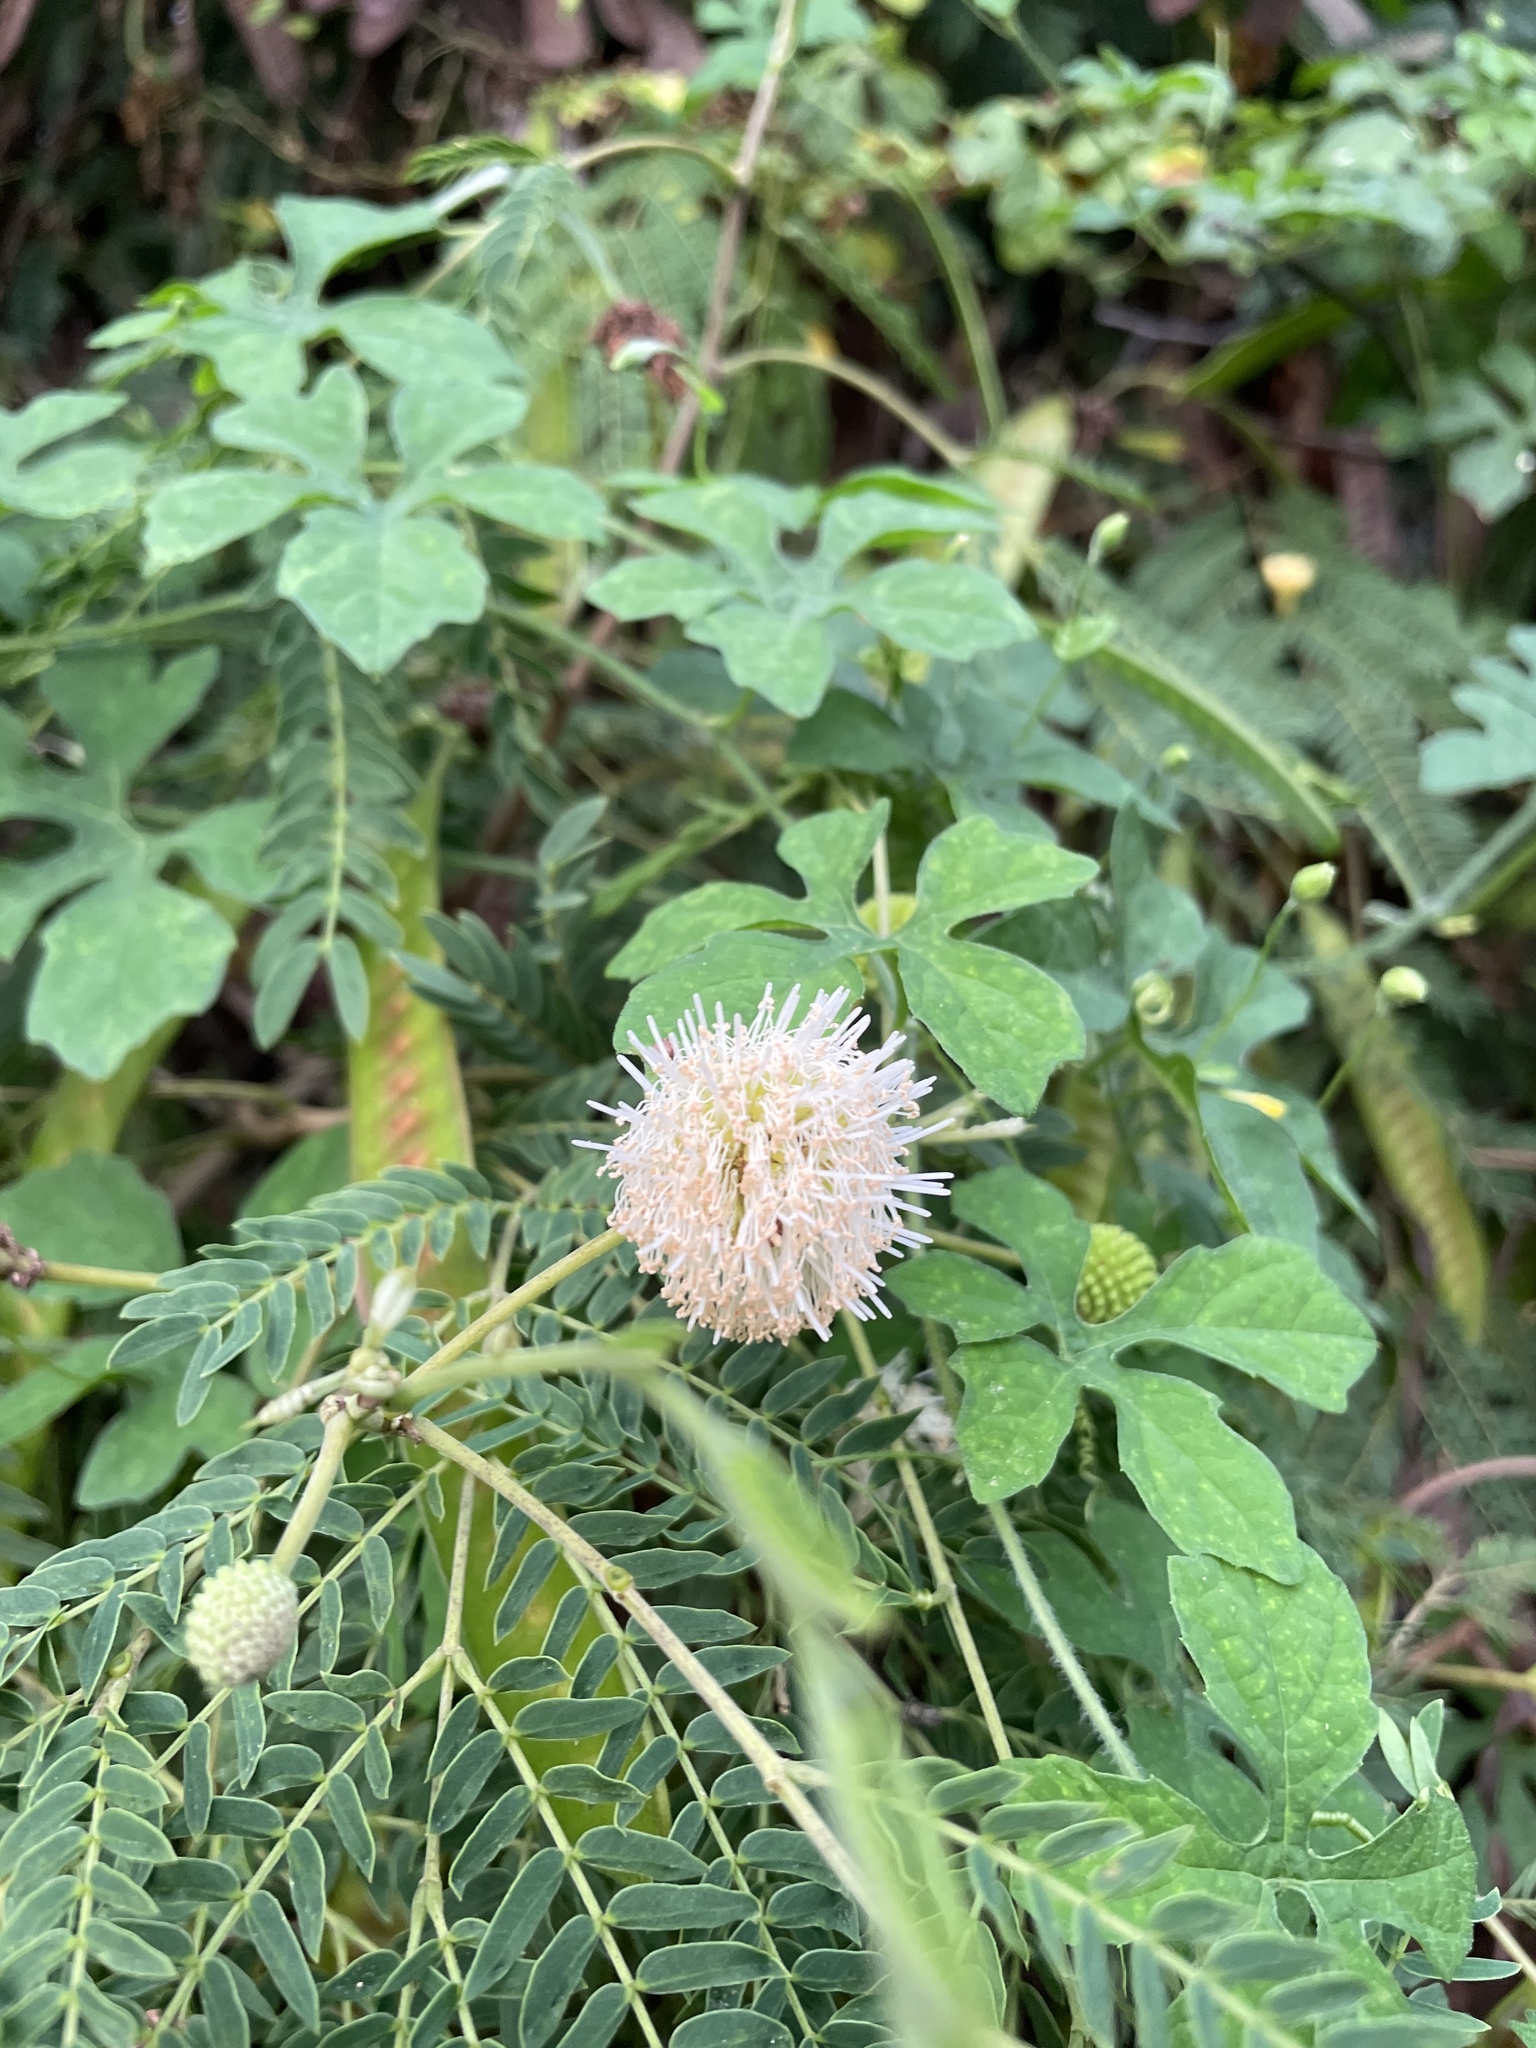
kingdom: Plantae
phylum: Tracheophyta
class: Magnoliopsida
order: Fabales
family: Fabaceae
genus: Leucaena
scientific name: Leucaena leucocephala
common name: White leadtree
